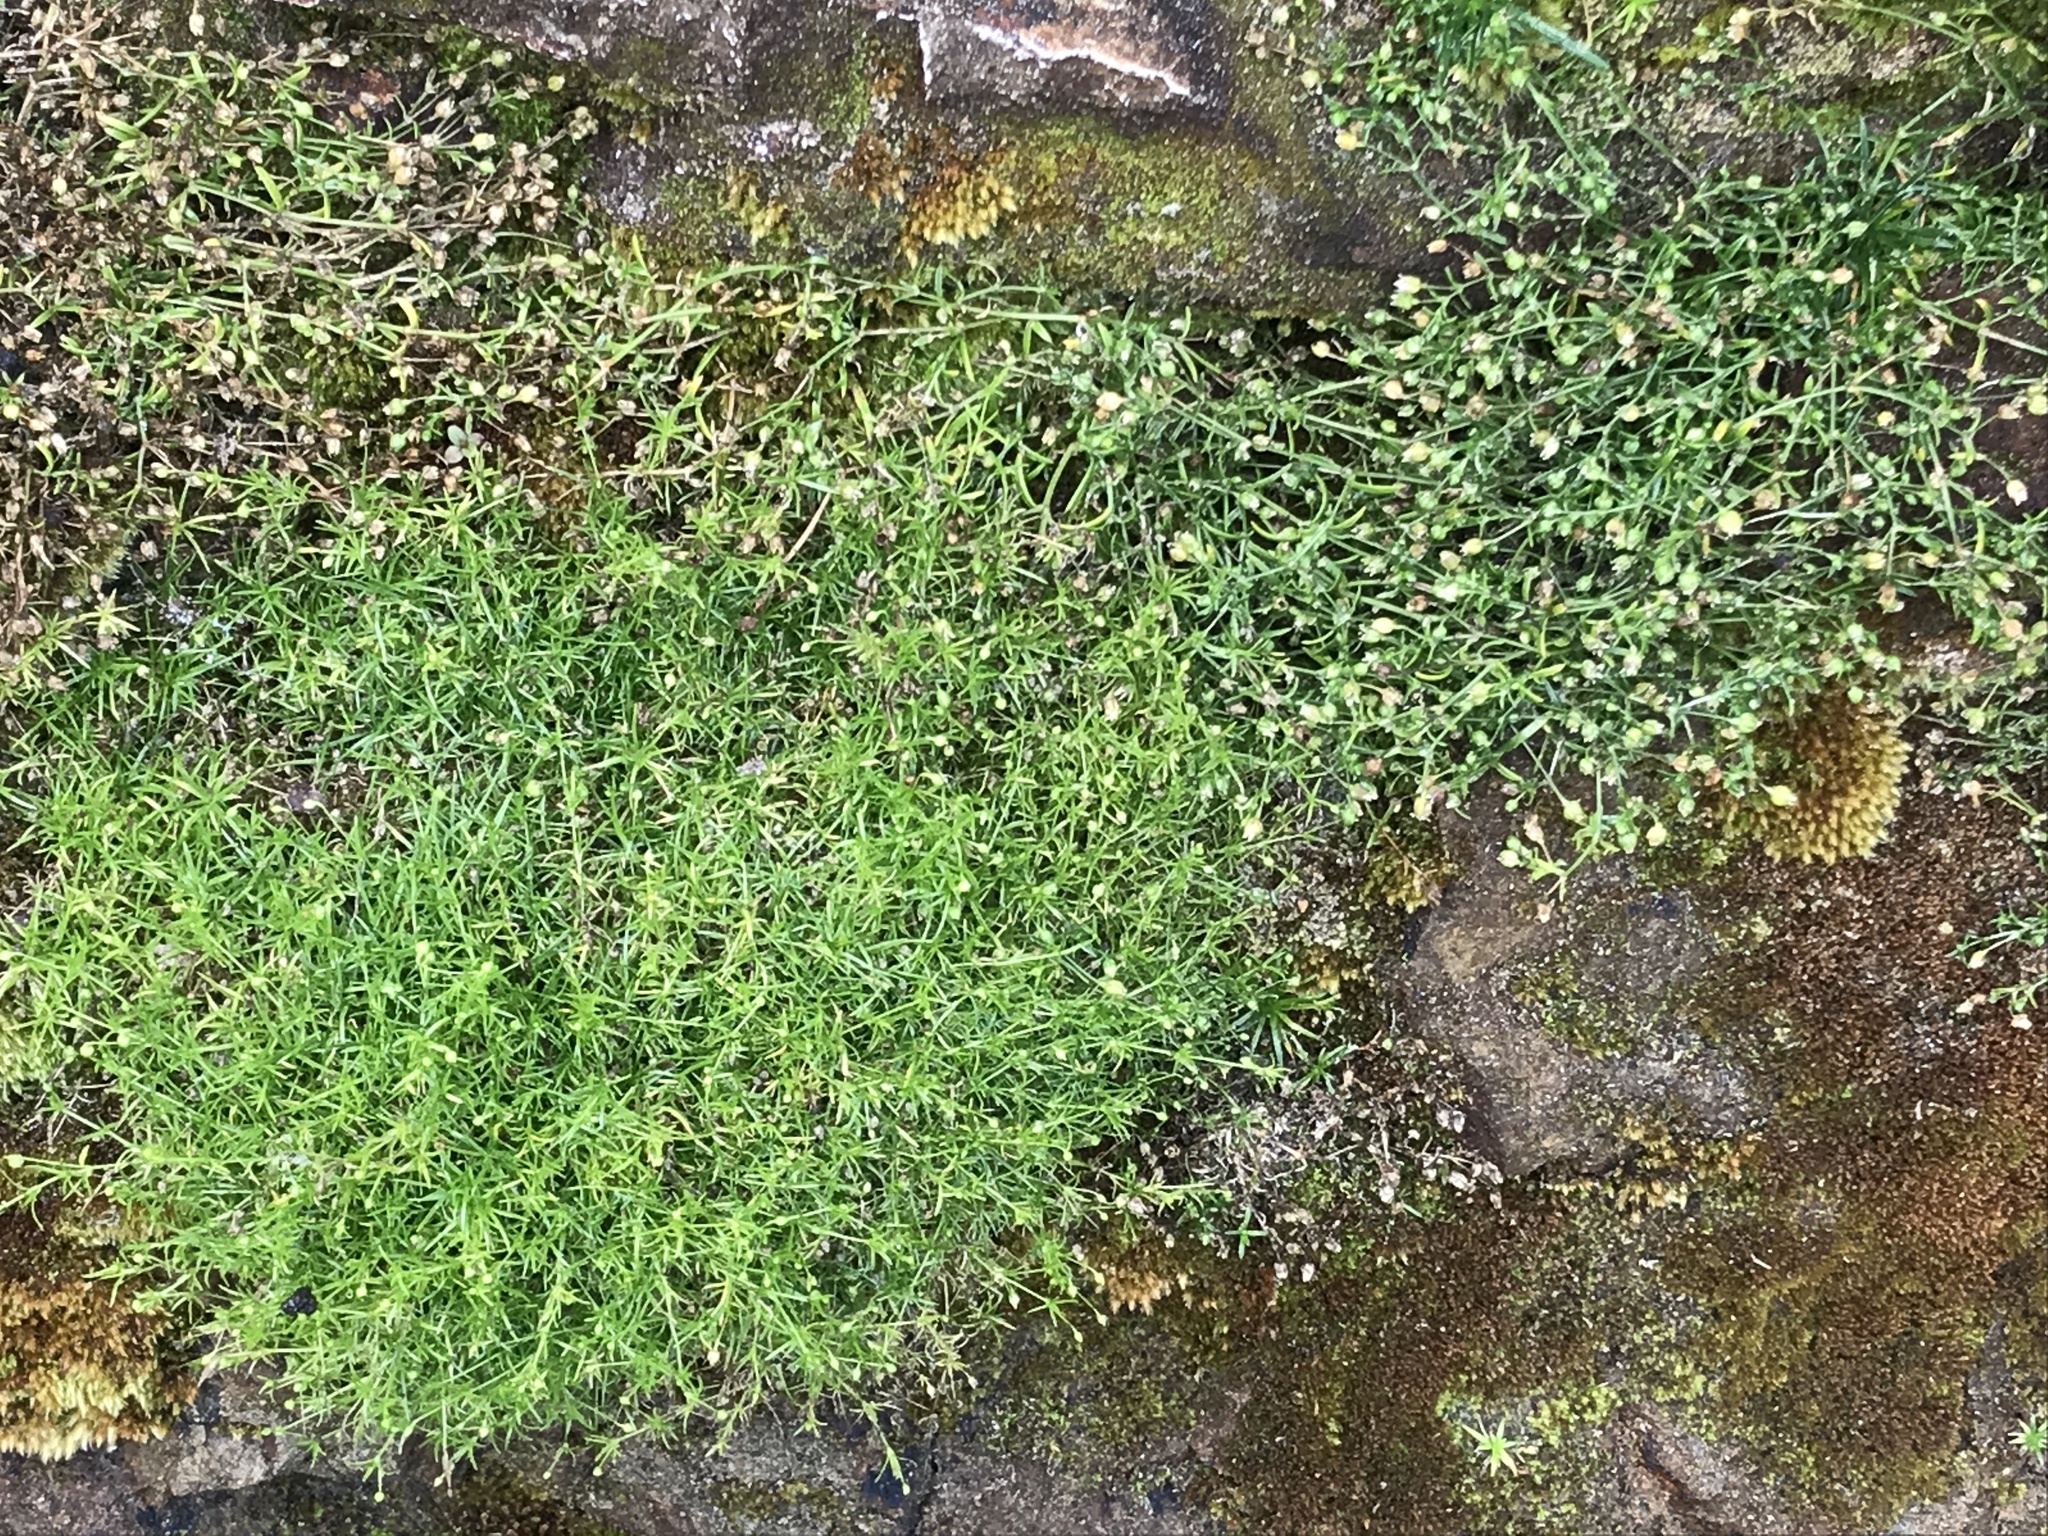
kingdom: Plantae
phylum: Tracheophyta
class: Magnoliopsida
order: Caryophyllales
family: Caryophyllaceae
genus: Sagina
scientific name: Sagina maxima
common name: Coastal pearlwort
